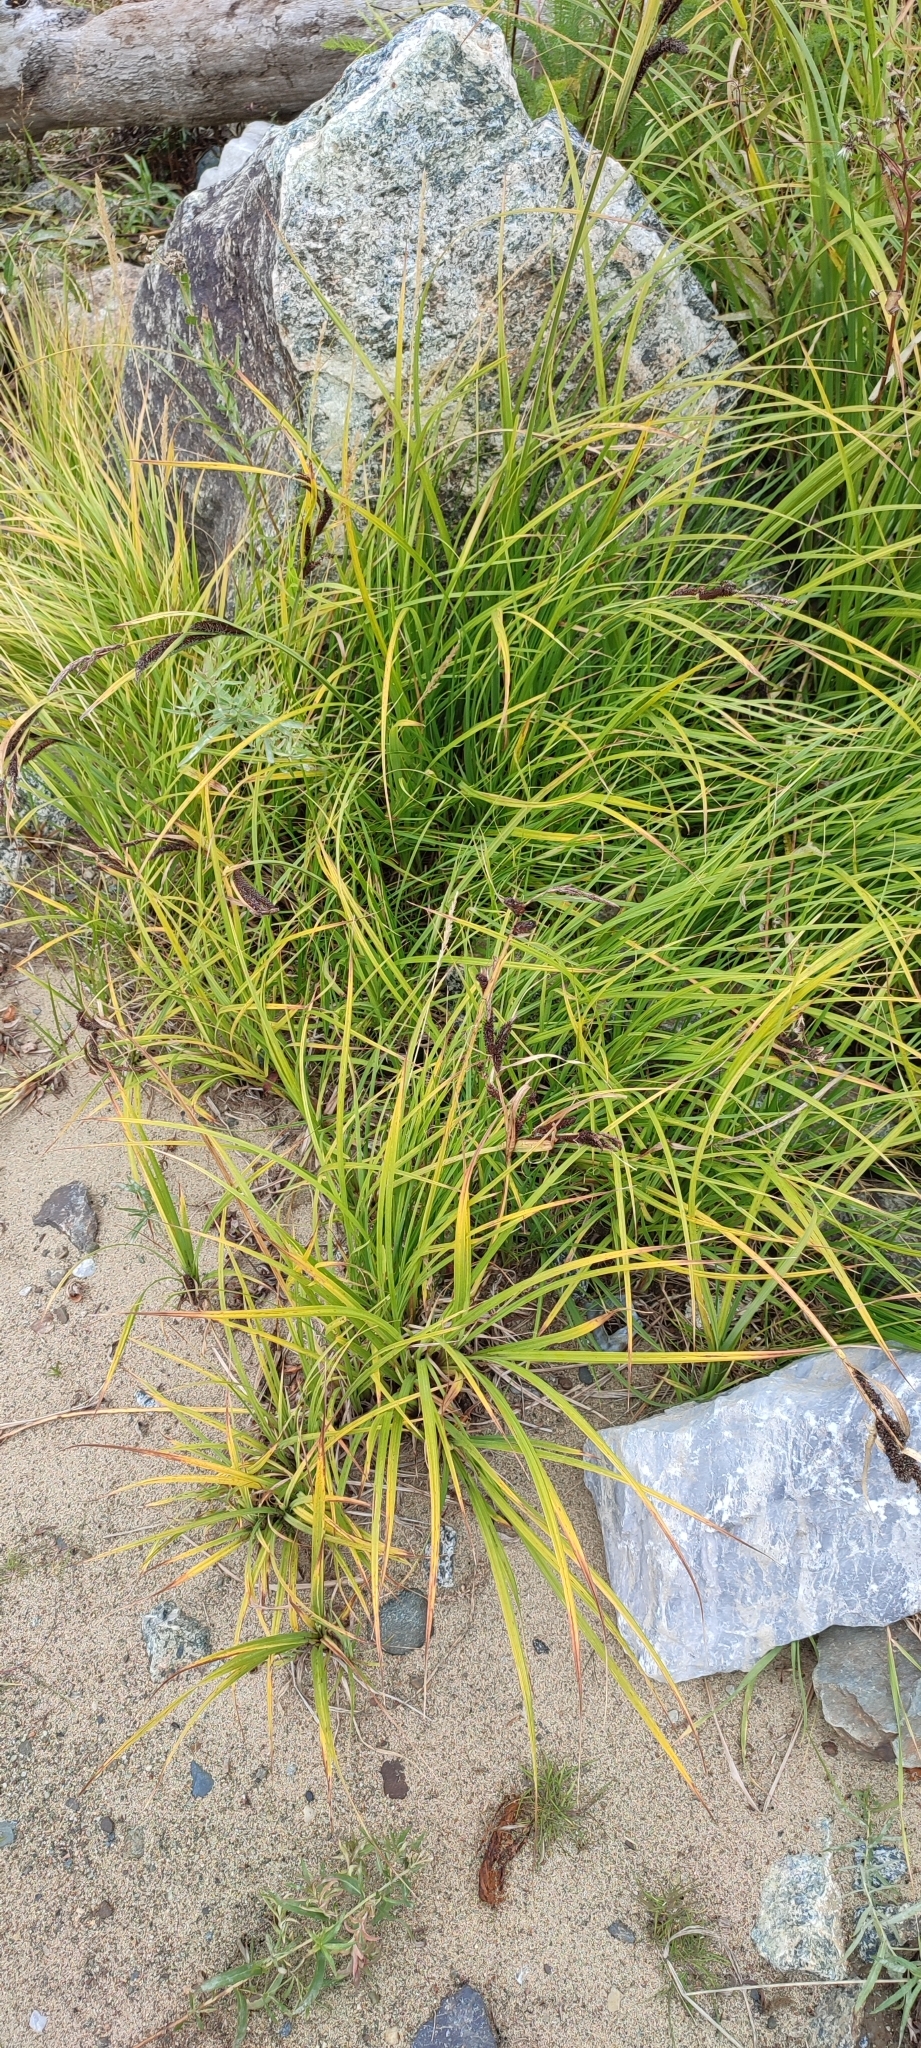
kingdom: Plantae
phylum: Tracheophyta
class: Liliopsida
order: Poales
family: Cyperaceae
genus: Carex
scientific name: Carex acuta
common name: Slender tufted-sedge
